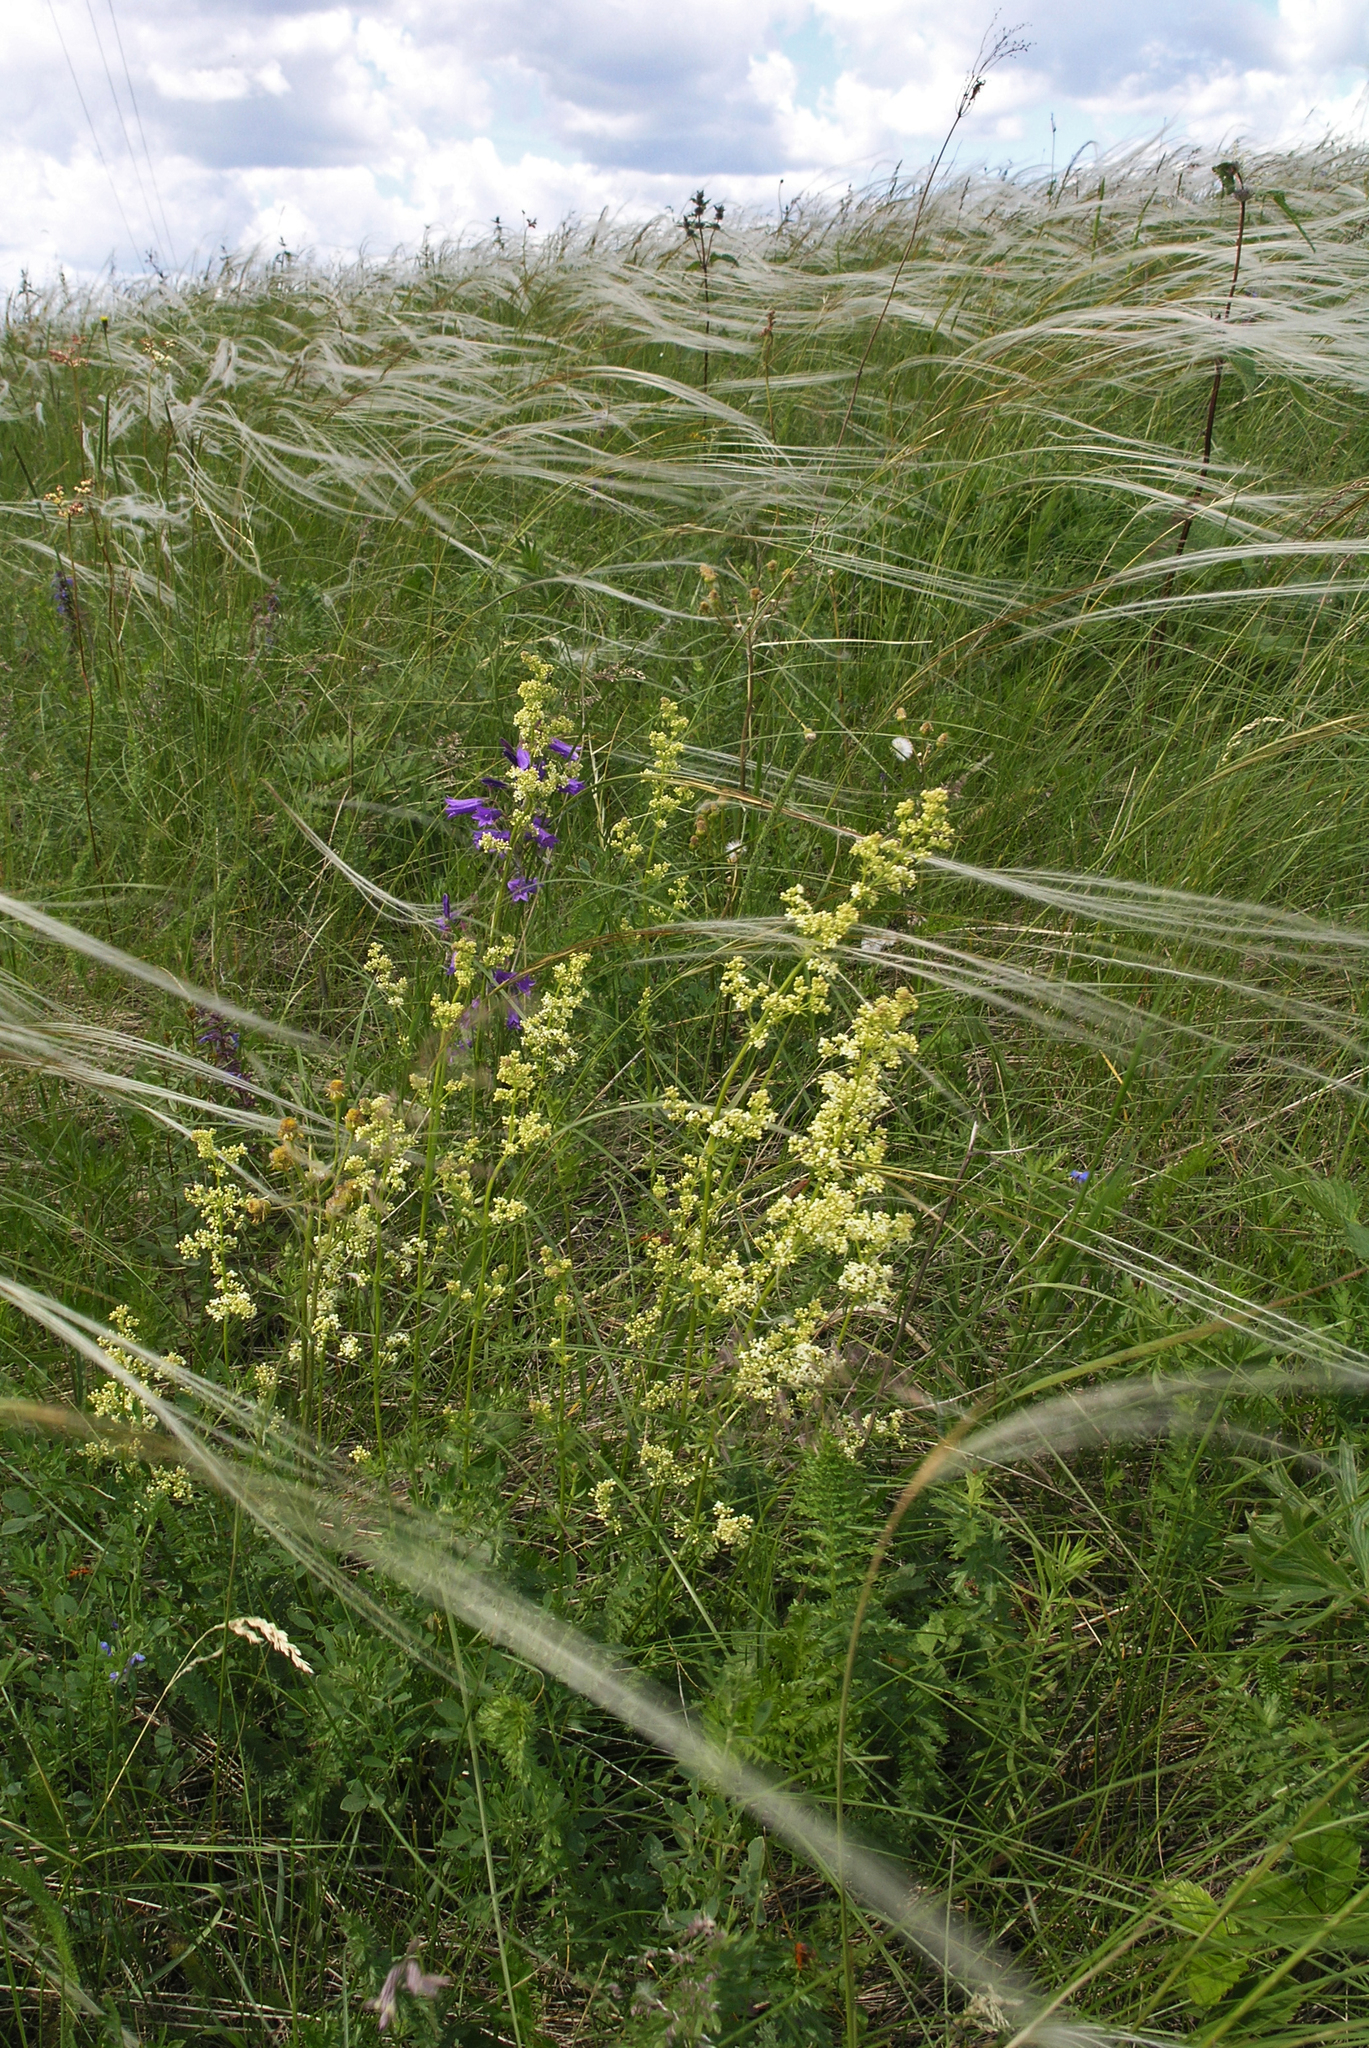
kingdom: Plantae
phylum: Tracheophyta
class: Magnoliopsida
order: Gentianales
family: Rubiaceae
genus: Galium
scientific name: Galium boreale
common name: Northern bedstraw
